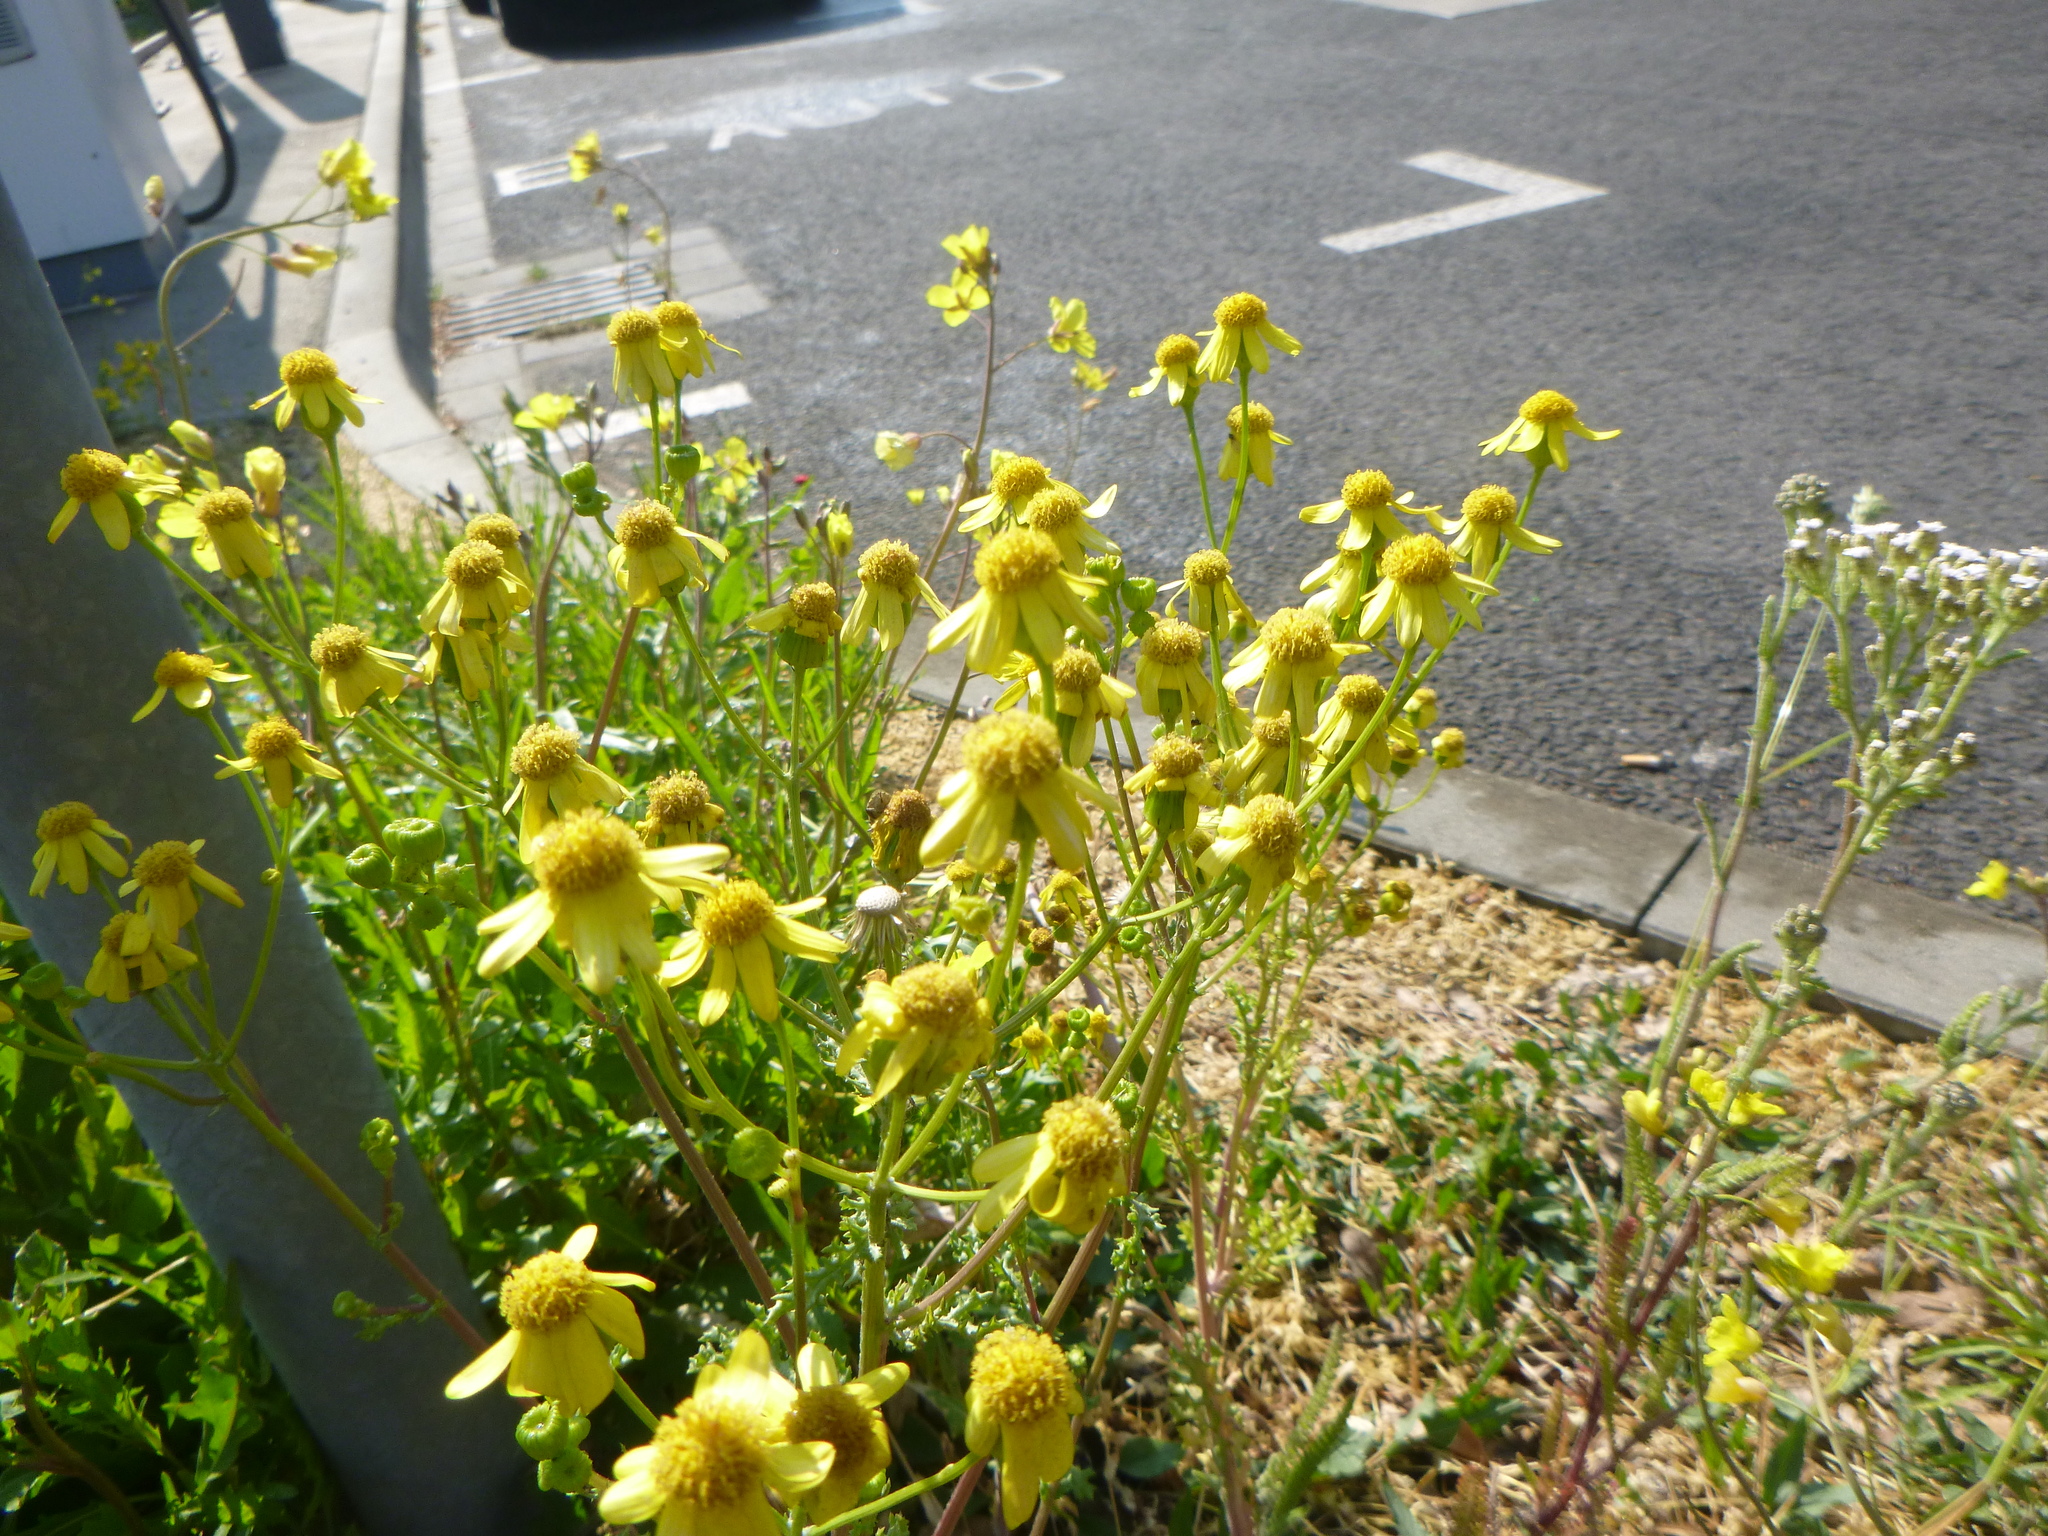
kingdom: Plantae
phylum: Tracheophyta
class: Magnoliopsida
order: Asterales
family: Asteraceae
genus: Senecio
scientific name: Senecio vernalis
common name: Eastern groundsel
